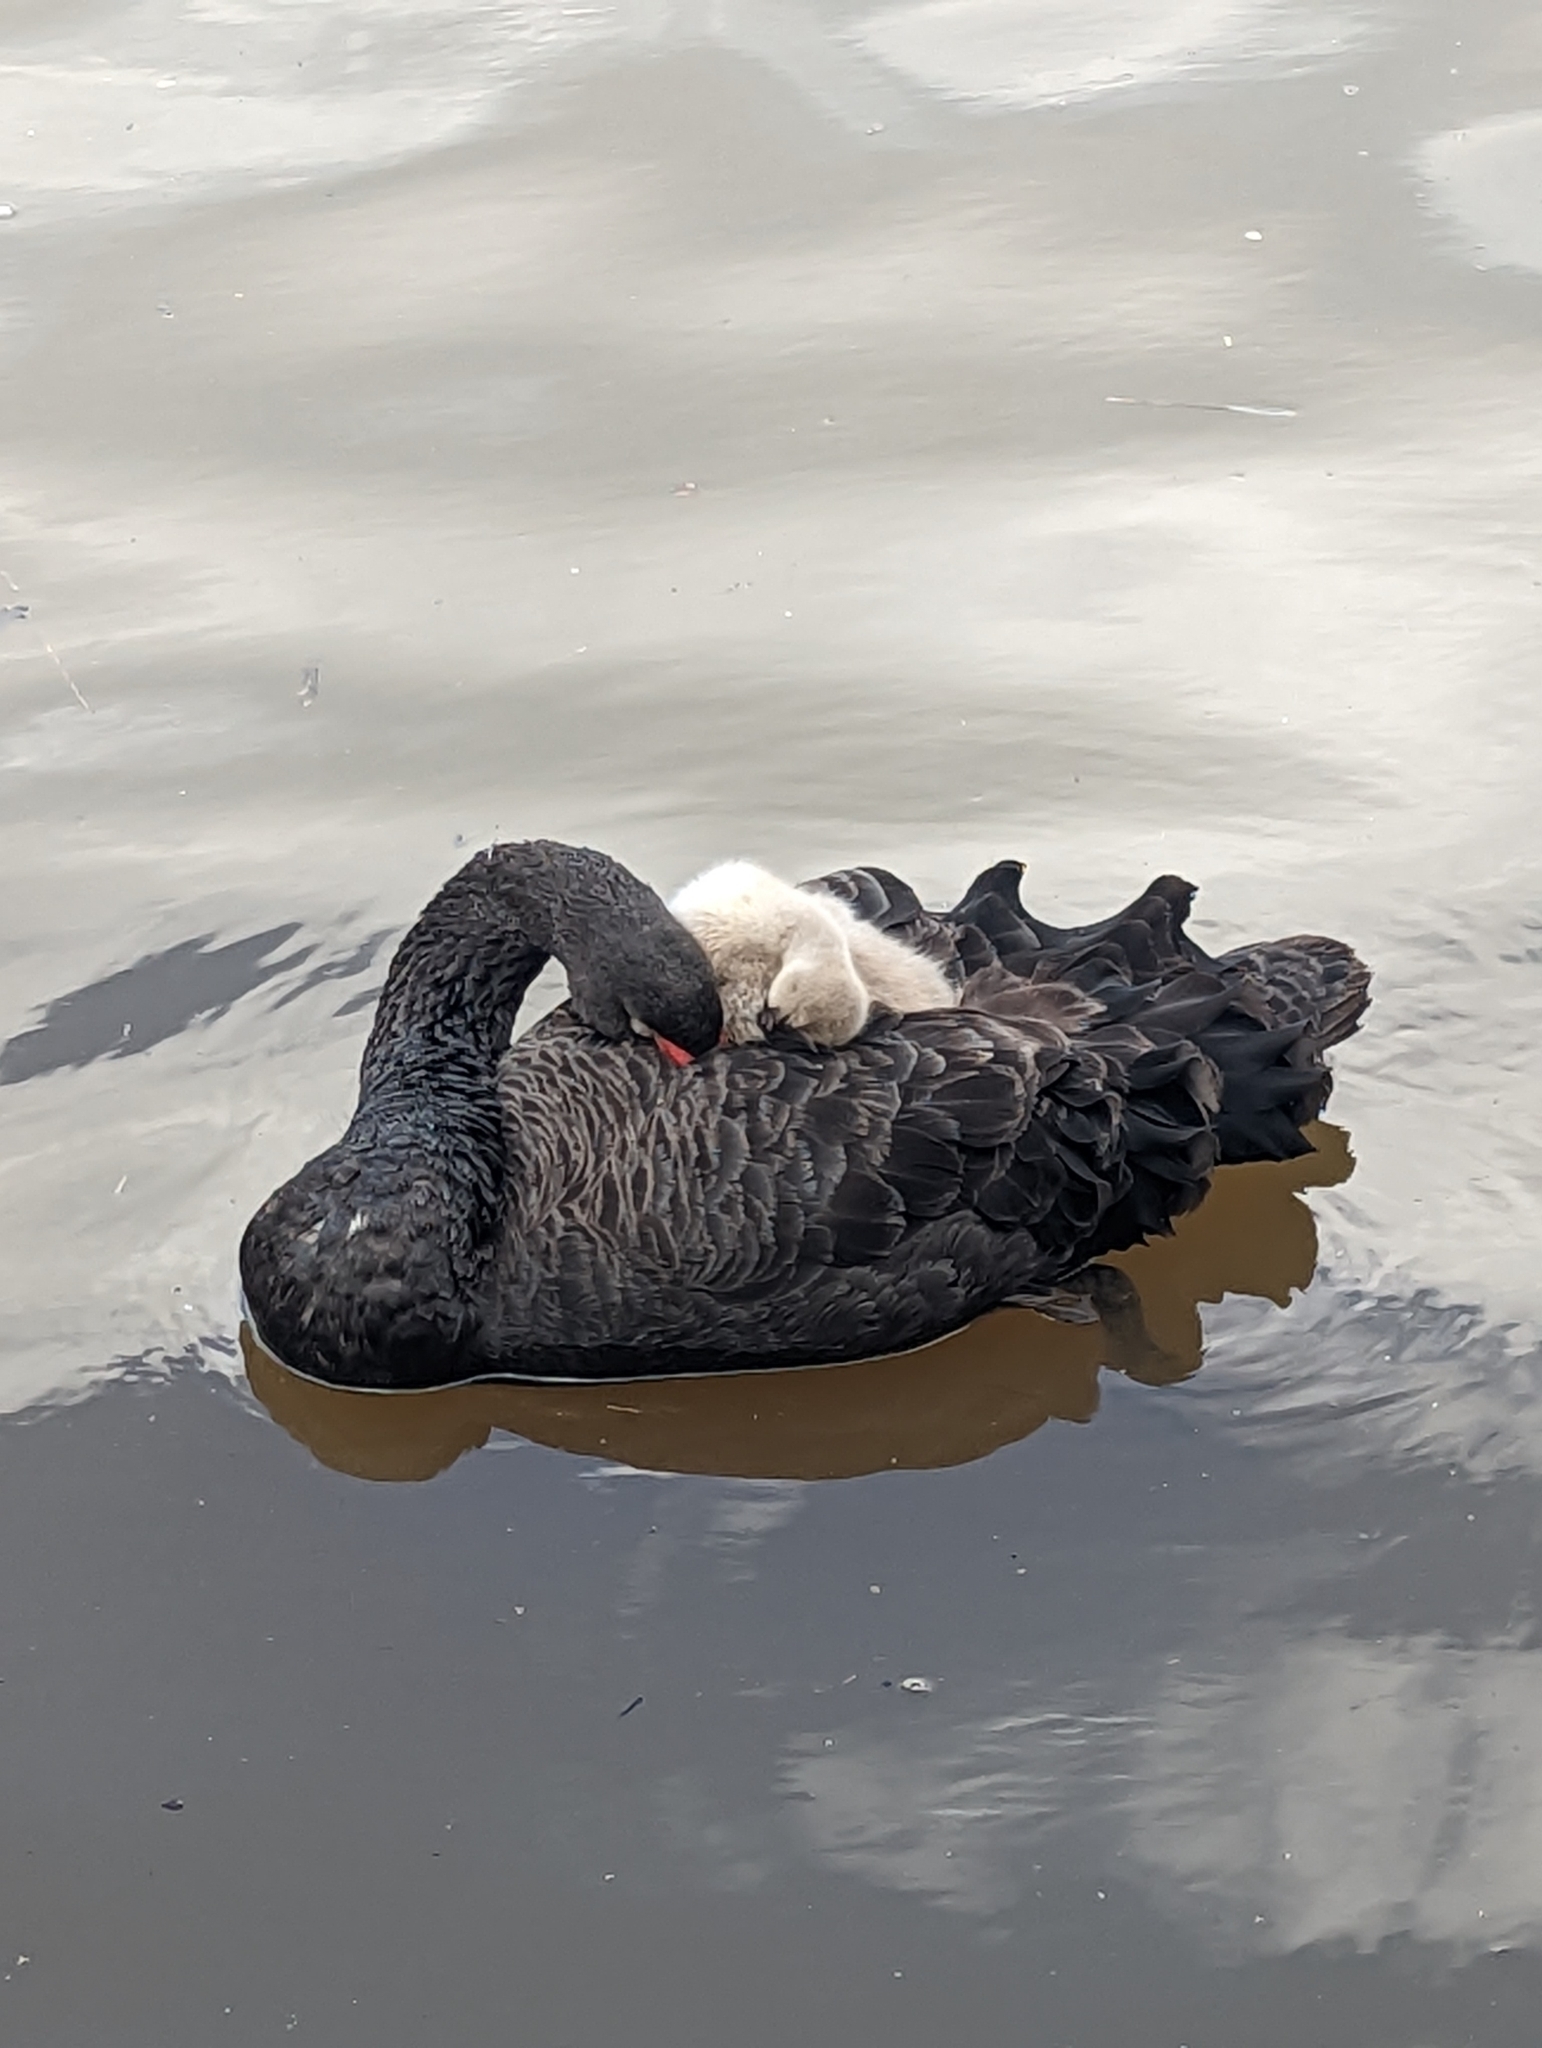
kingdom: Animalia
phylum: Chordata
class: Aves
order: Anseriformes
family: Anatidae
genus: Cygnus
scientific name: Cygnus atratus
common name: Black swan
